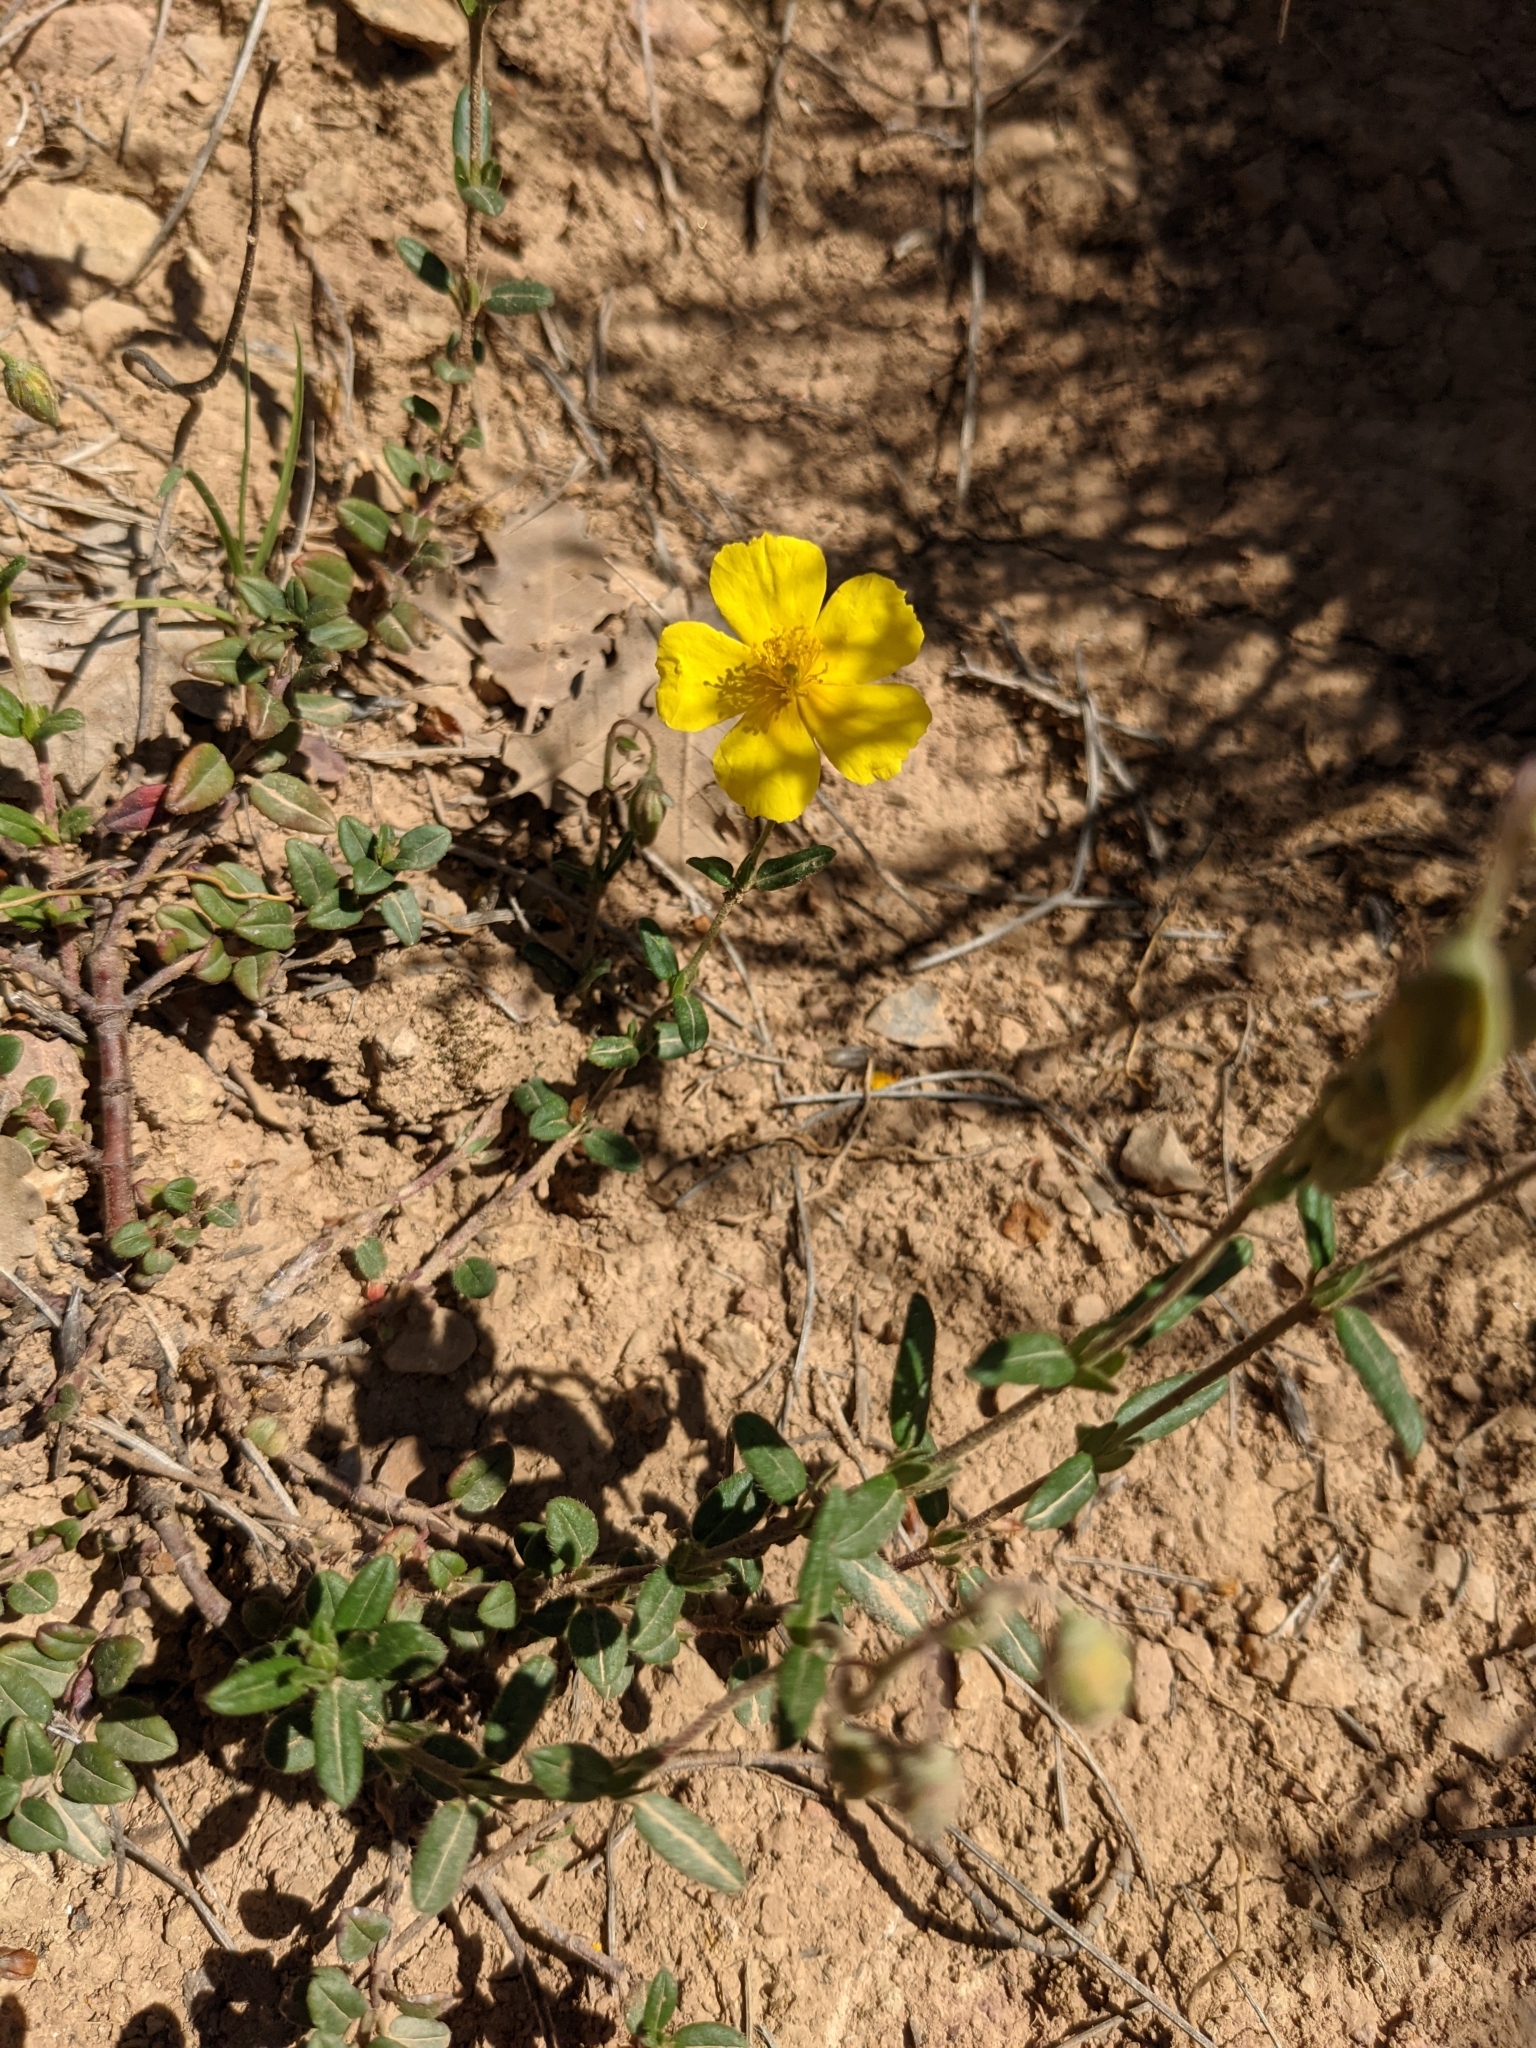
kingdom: Plantae
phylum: Tracheophyta
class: Magnoliopsida
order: Malvales
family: Cistaceae
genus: Helianthemum
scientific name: Helianthemum nummularium
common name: Common rock-rose
